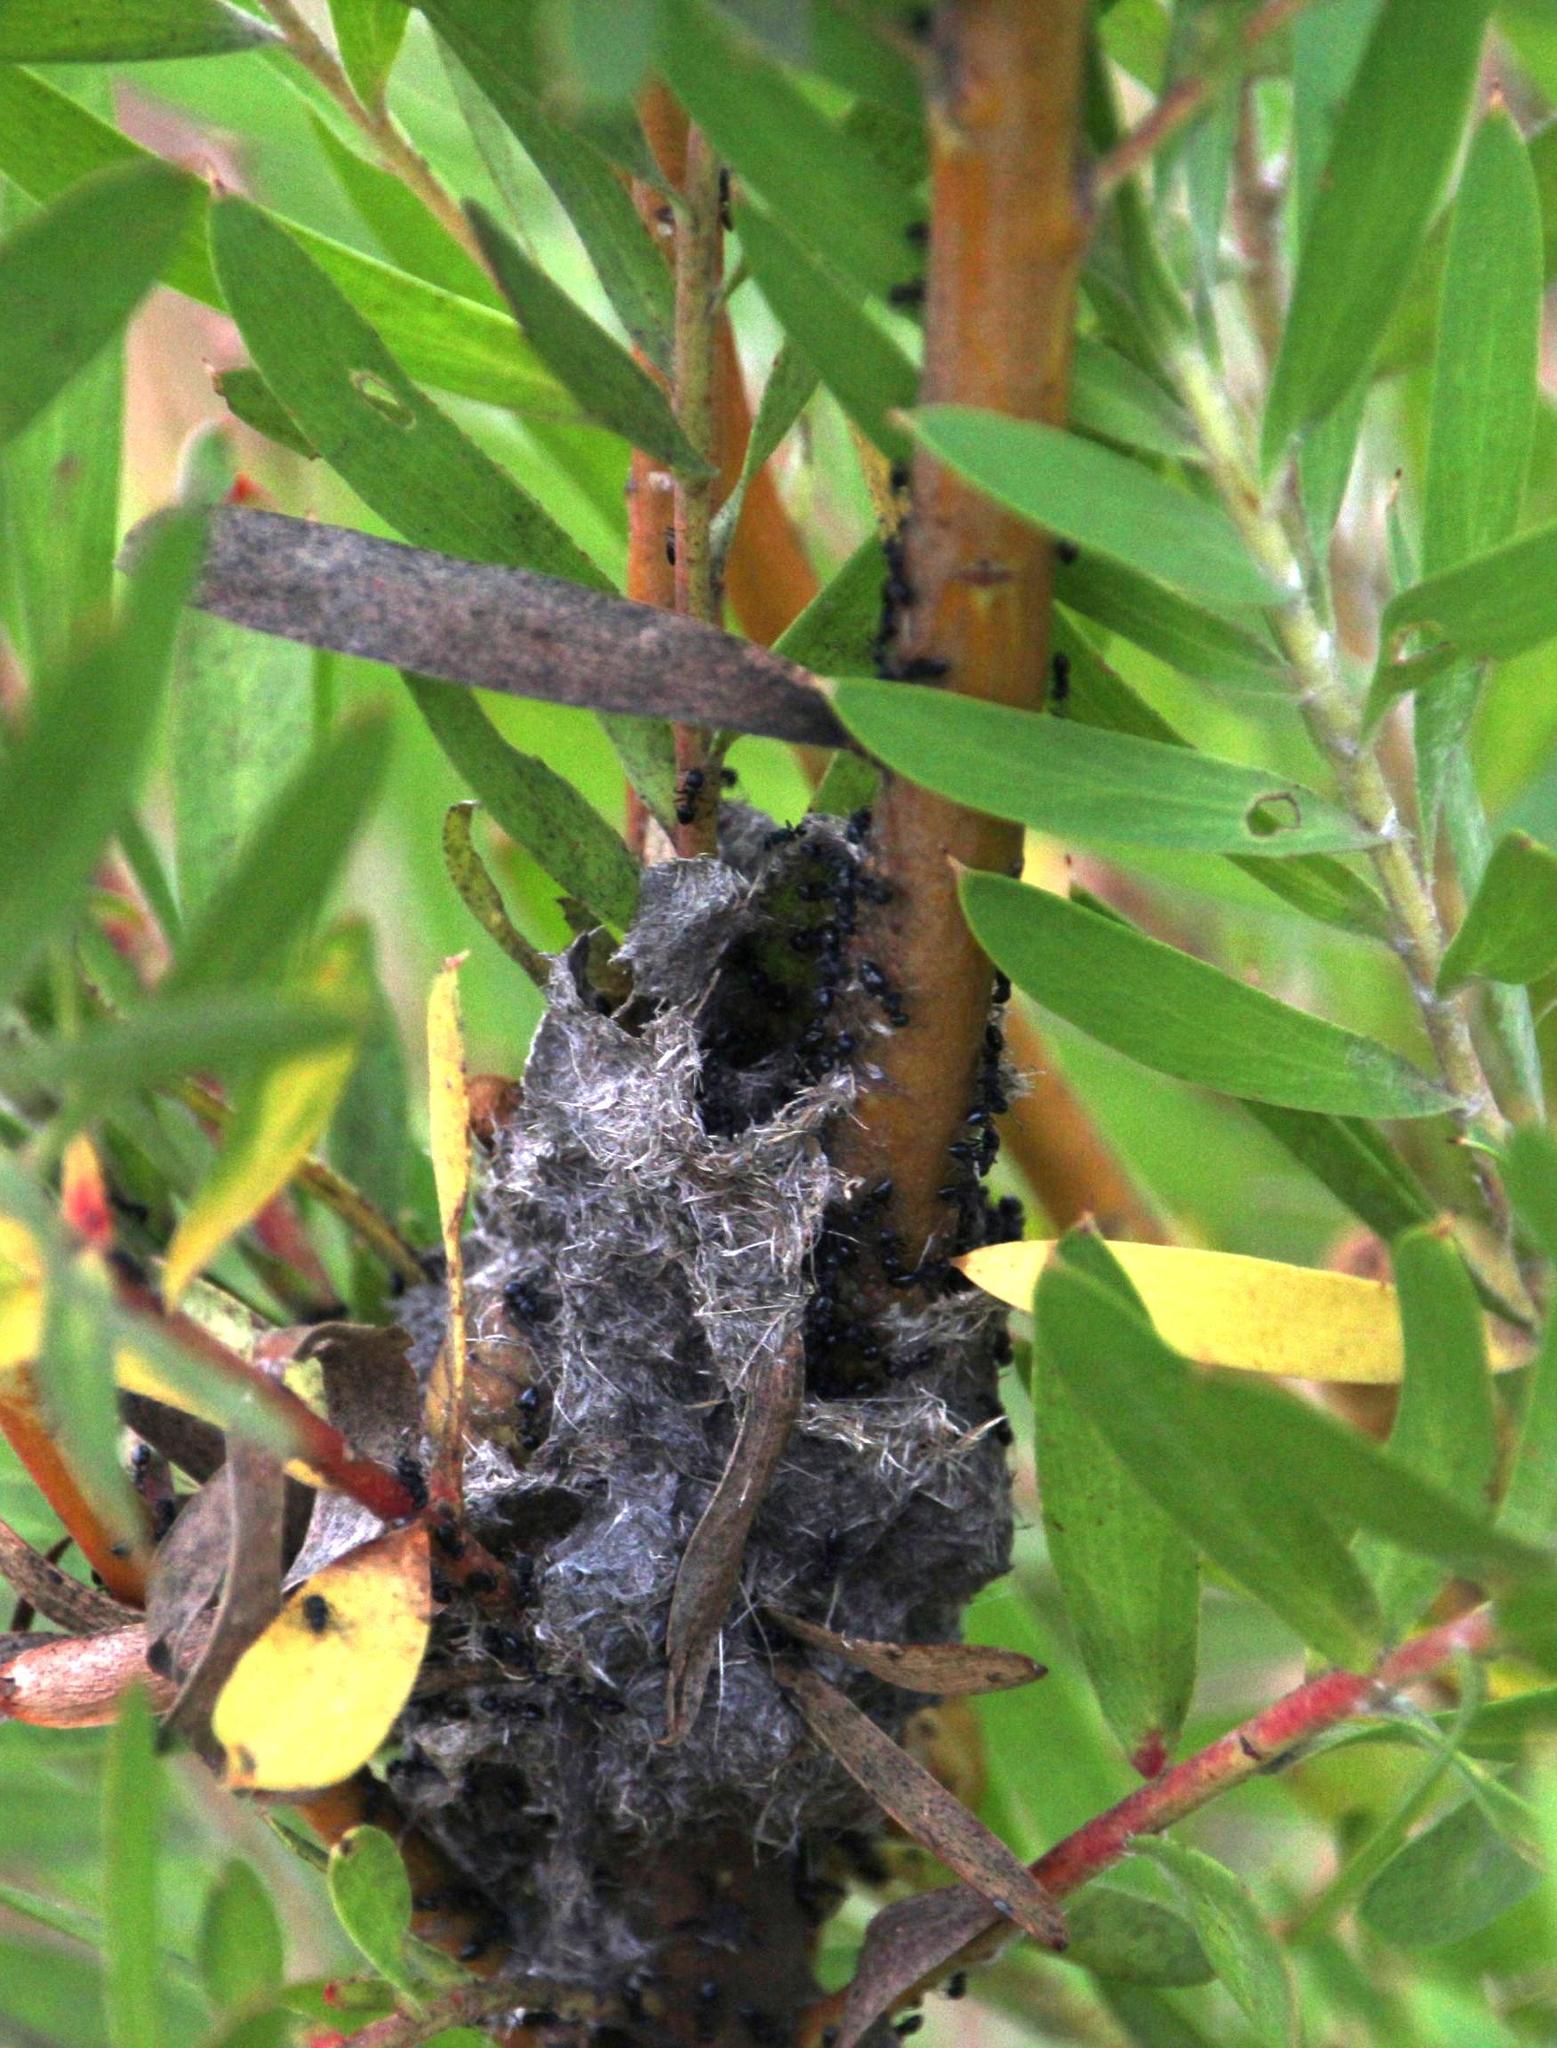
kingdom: Animalia
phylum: Arthropoda
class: Insecta
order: Hymenoptera
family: Formicidae
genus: Crematogaster
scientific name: Crematogaster peringueyi
